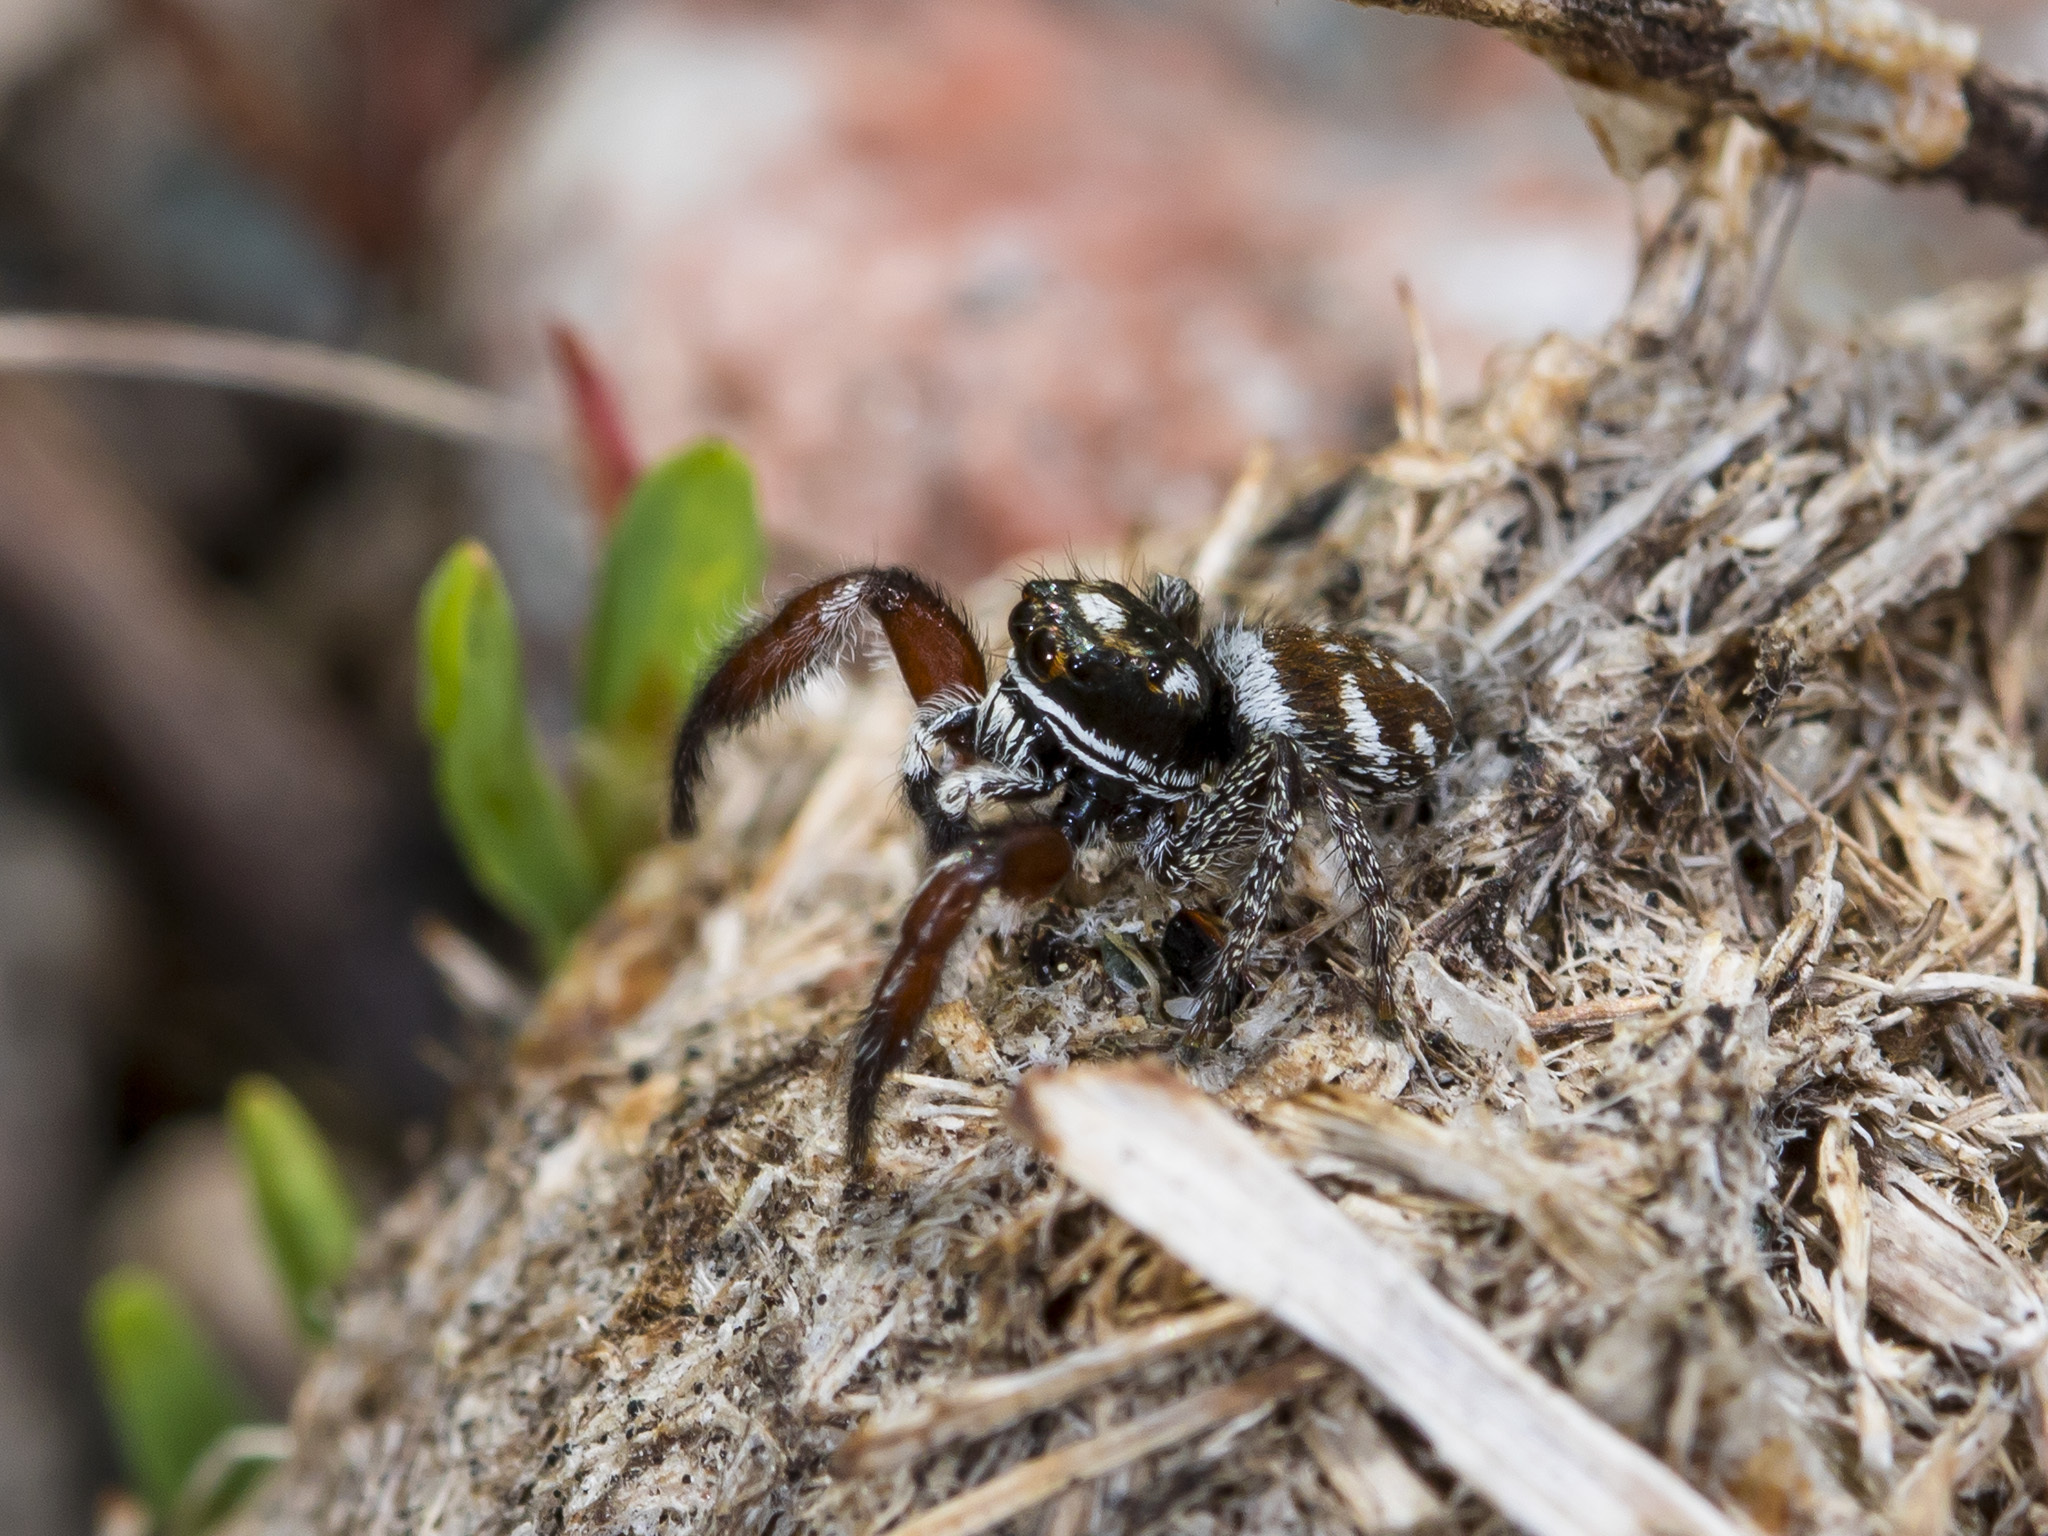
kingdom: Animalia
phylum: Arthropoda
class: Arachnida
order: Araneae
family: Salticidae
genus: Pellenes
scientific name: Pellenes nigrociliatus
